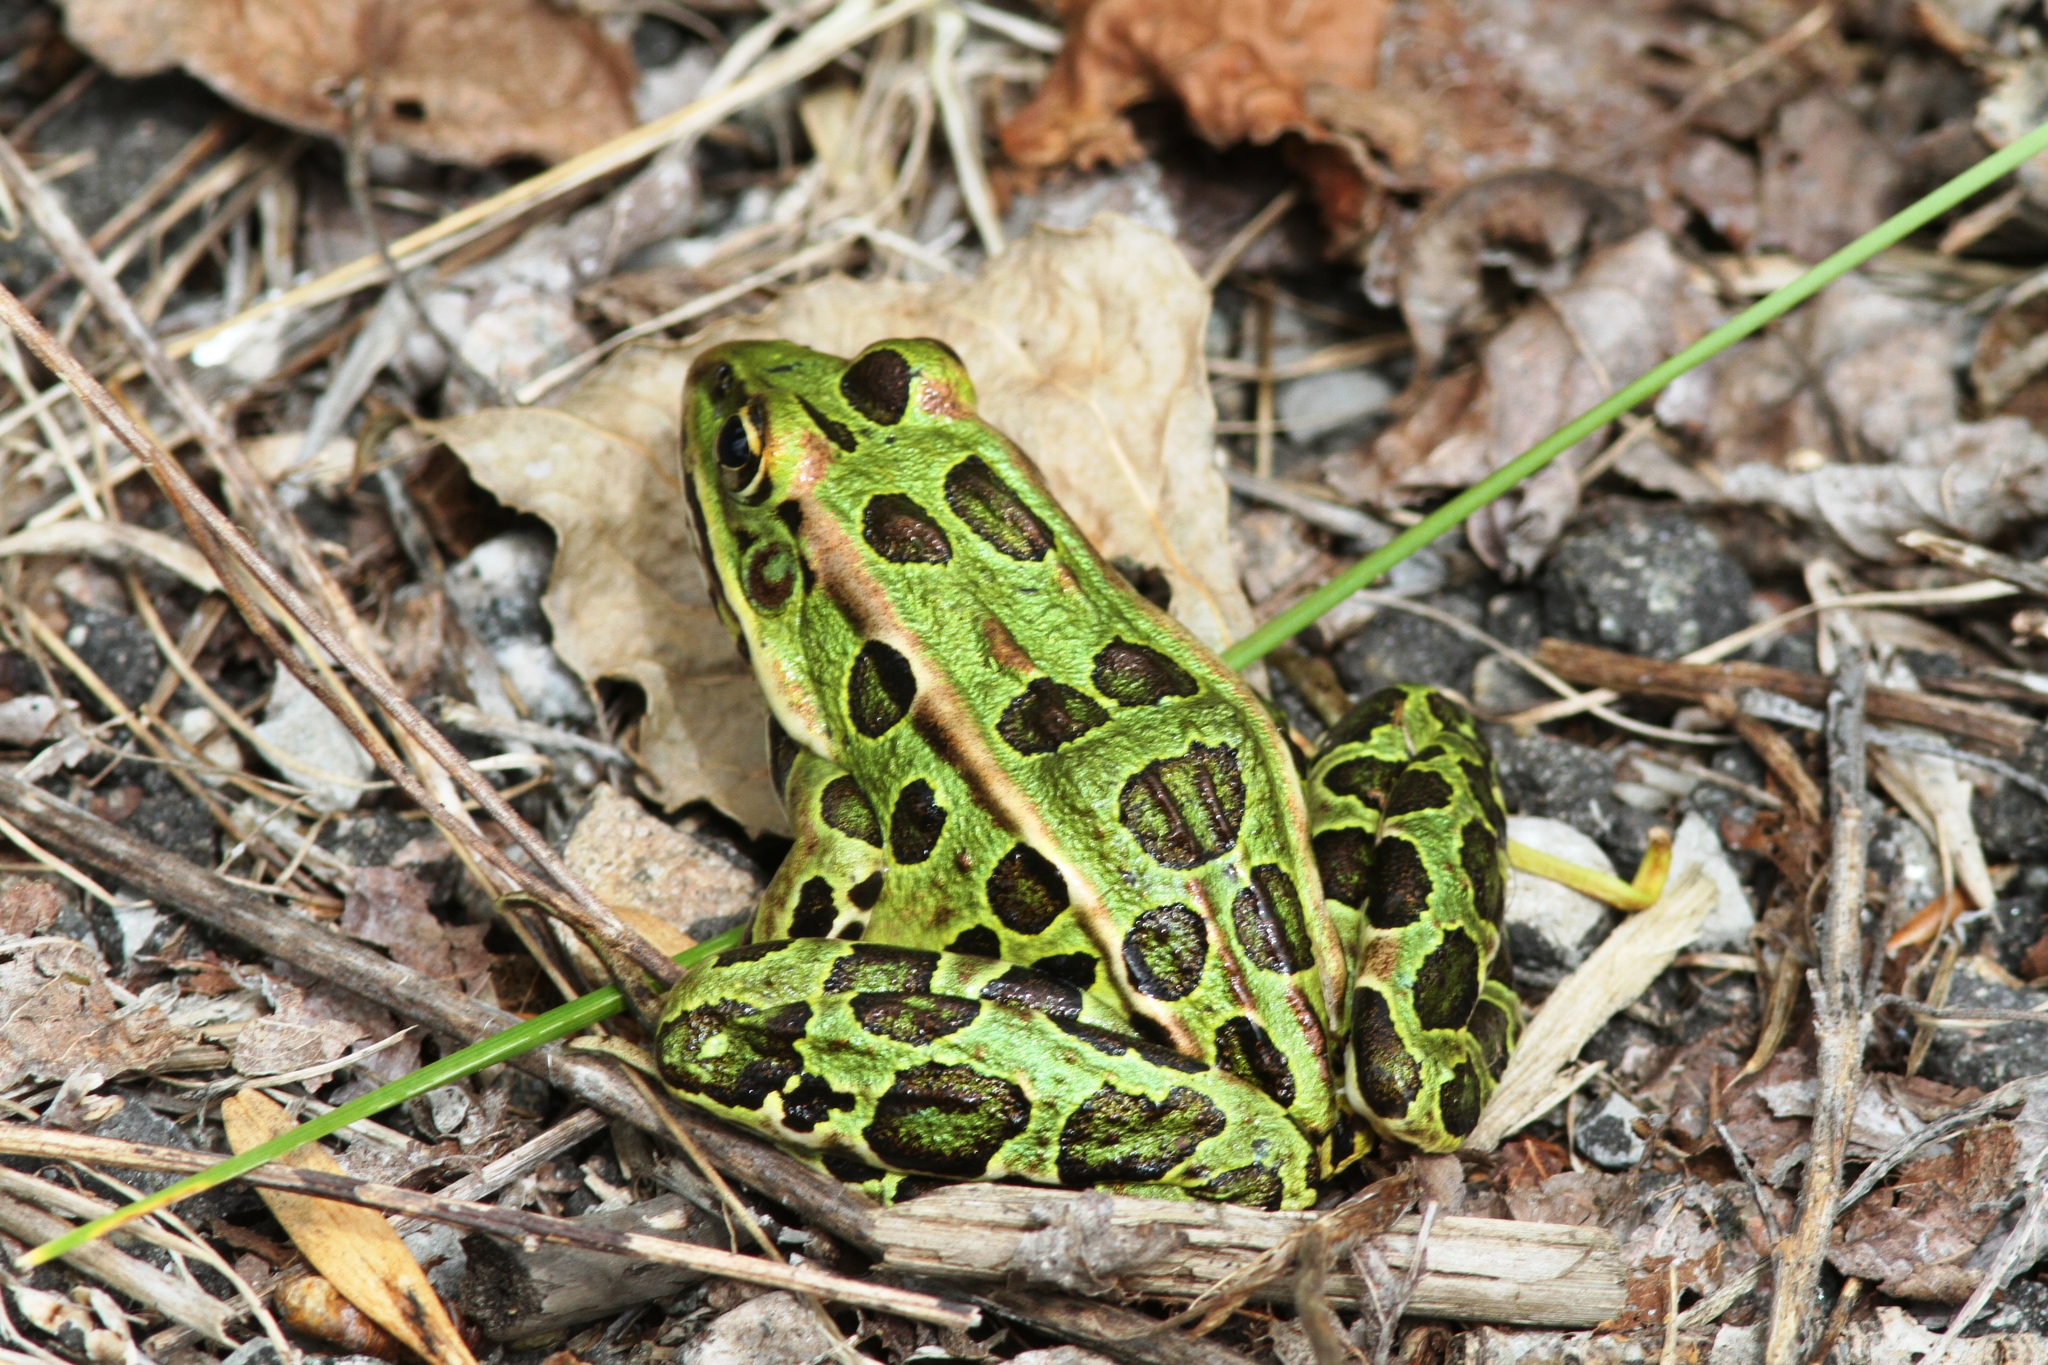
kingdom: Animalia
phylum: Chordata
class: Amphibia
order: Anura
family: Ranidae
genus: Lithobates
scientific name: Lithobates pipiens
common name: Northern leopard frog
